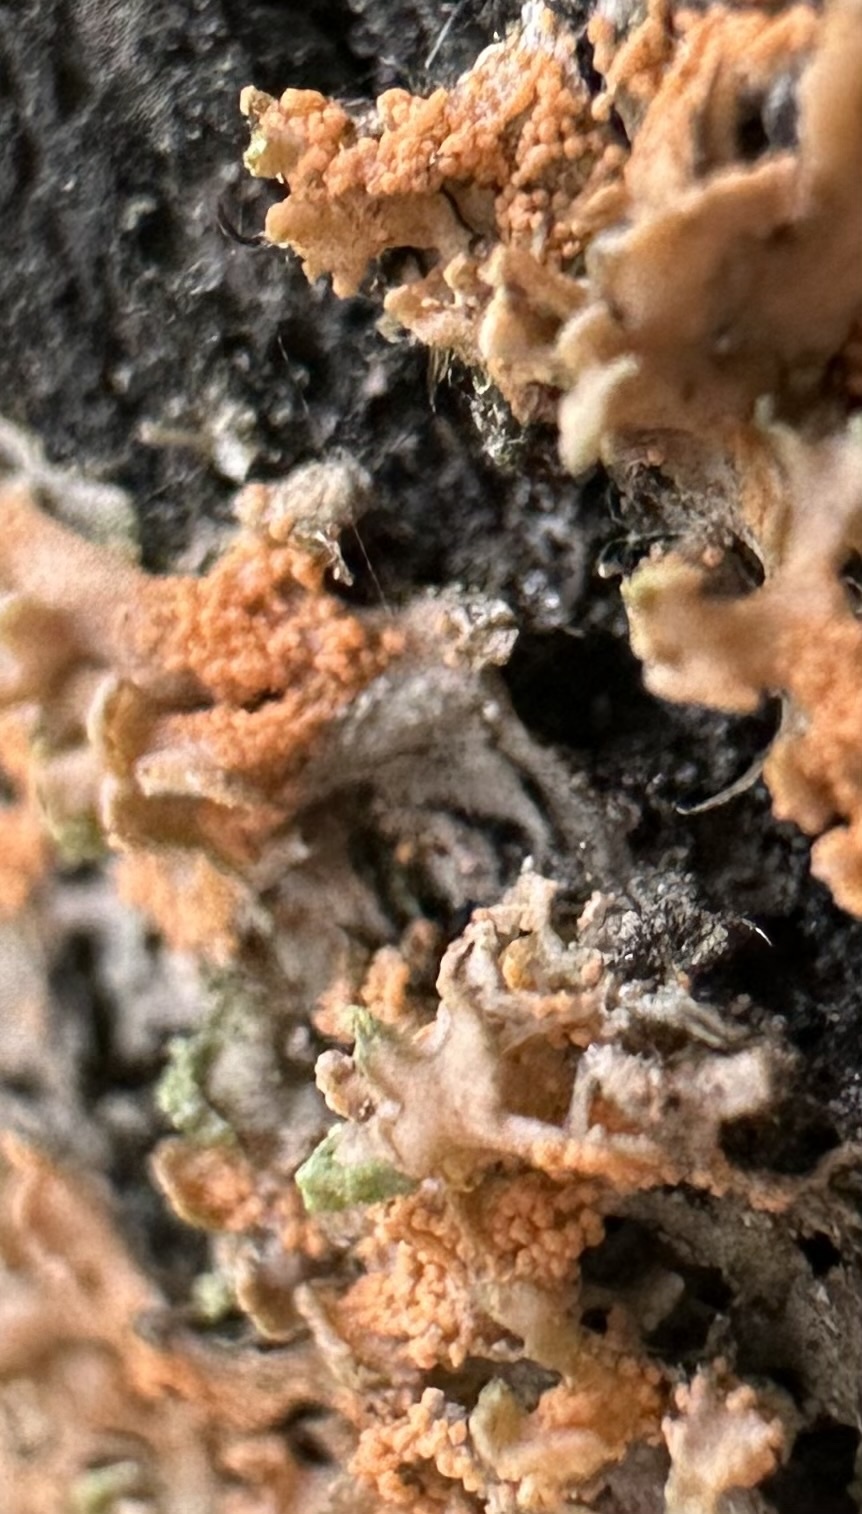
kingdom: Fungi
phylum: Basidiomycota
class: Agaricomycetes
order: Corticiales
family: Corticiaceae
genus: Erythricium
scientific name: Erythricium aurantiacum
